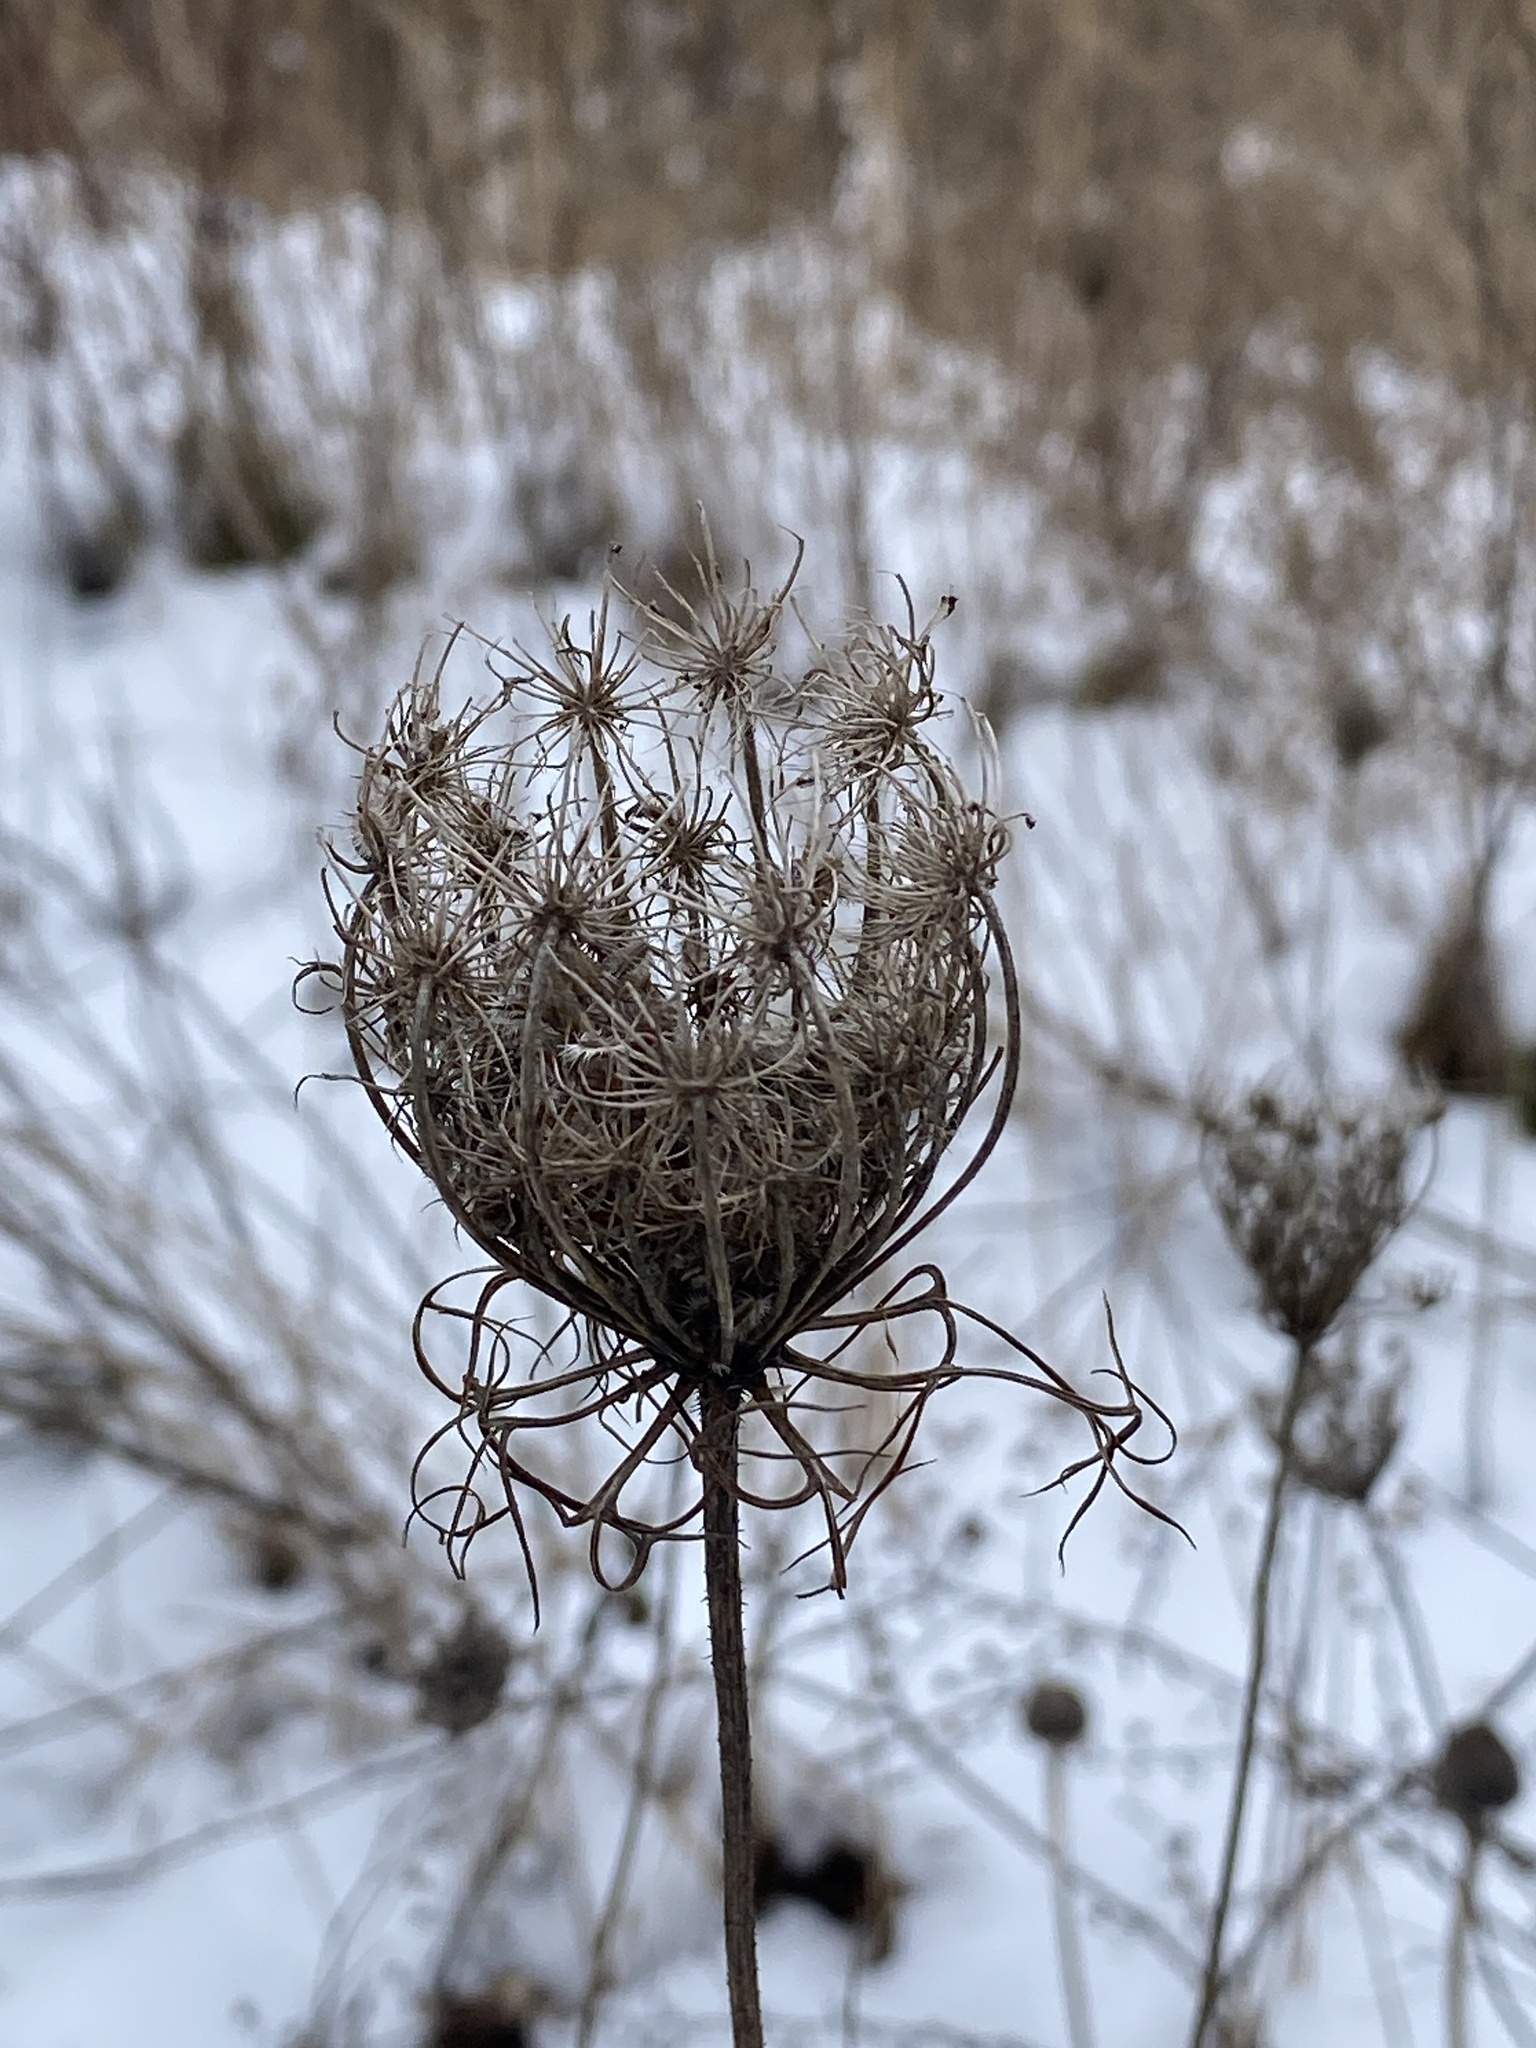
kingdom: Plantae
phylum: Tracheophyta
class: Magnoliopsida
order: Apiales
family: Apiaceae
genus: Daucus
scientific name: Daucus carota
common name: Wild carrot
